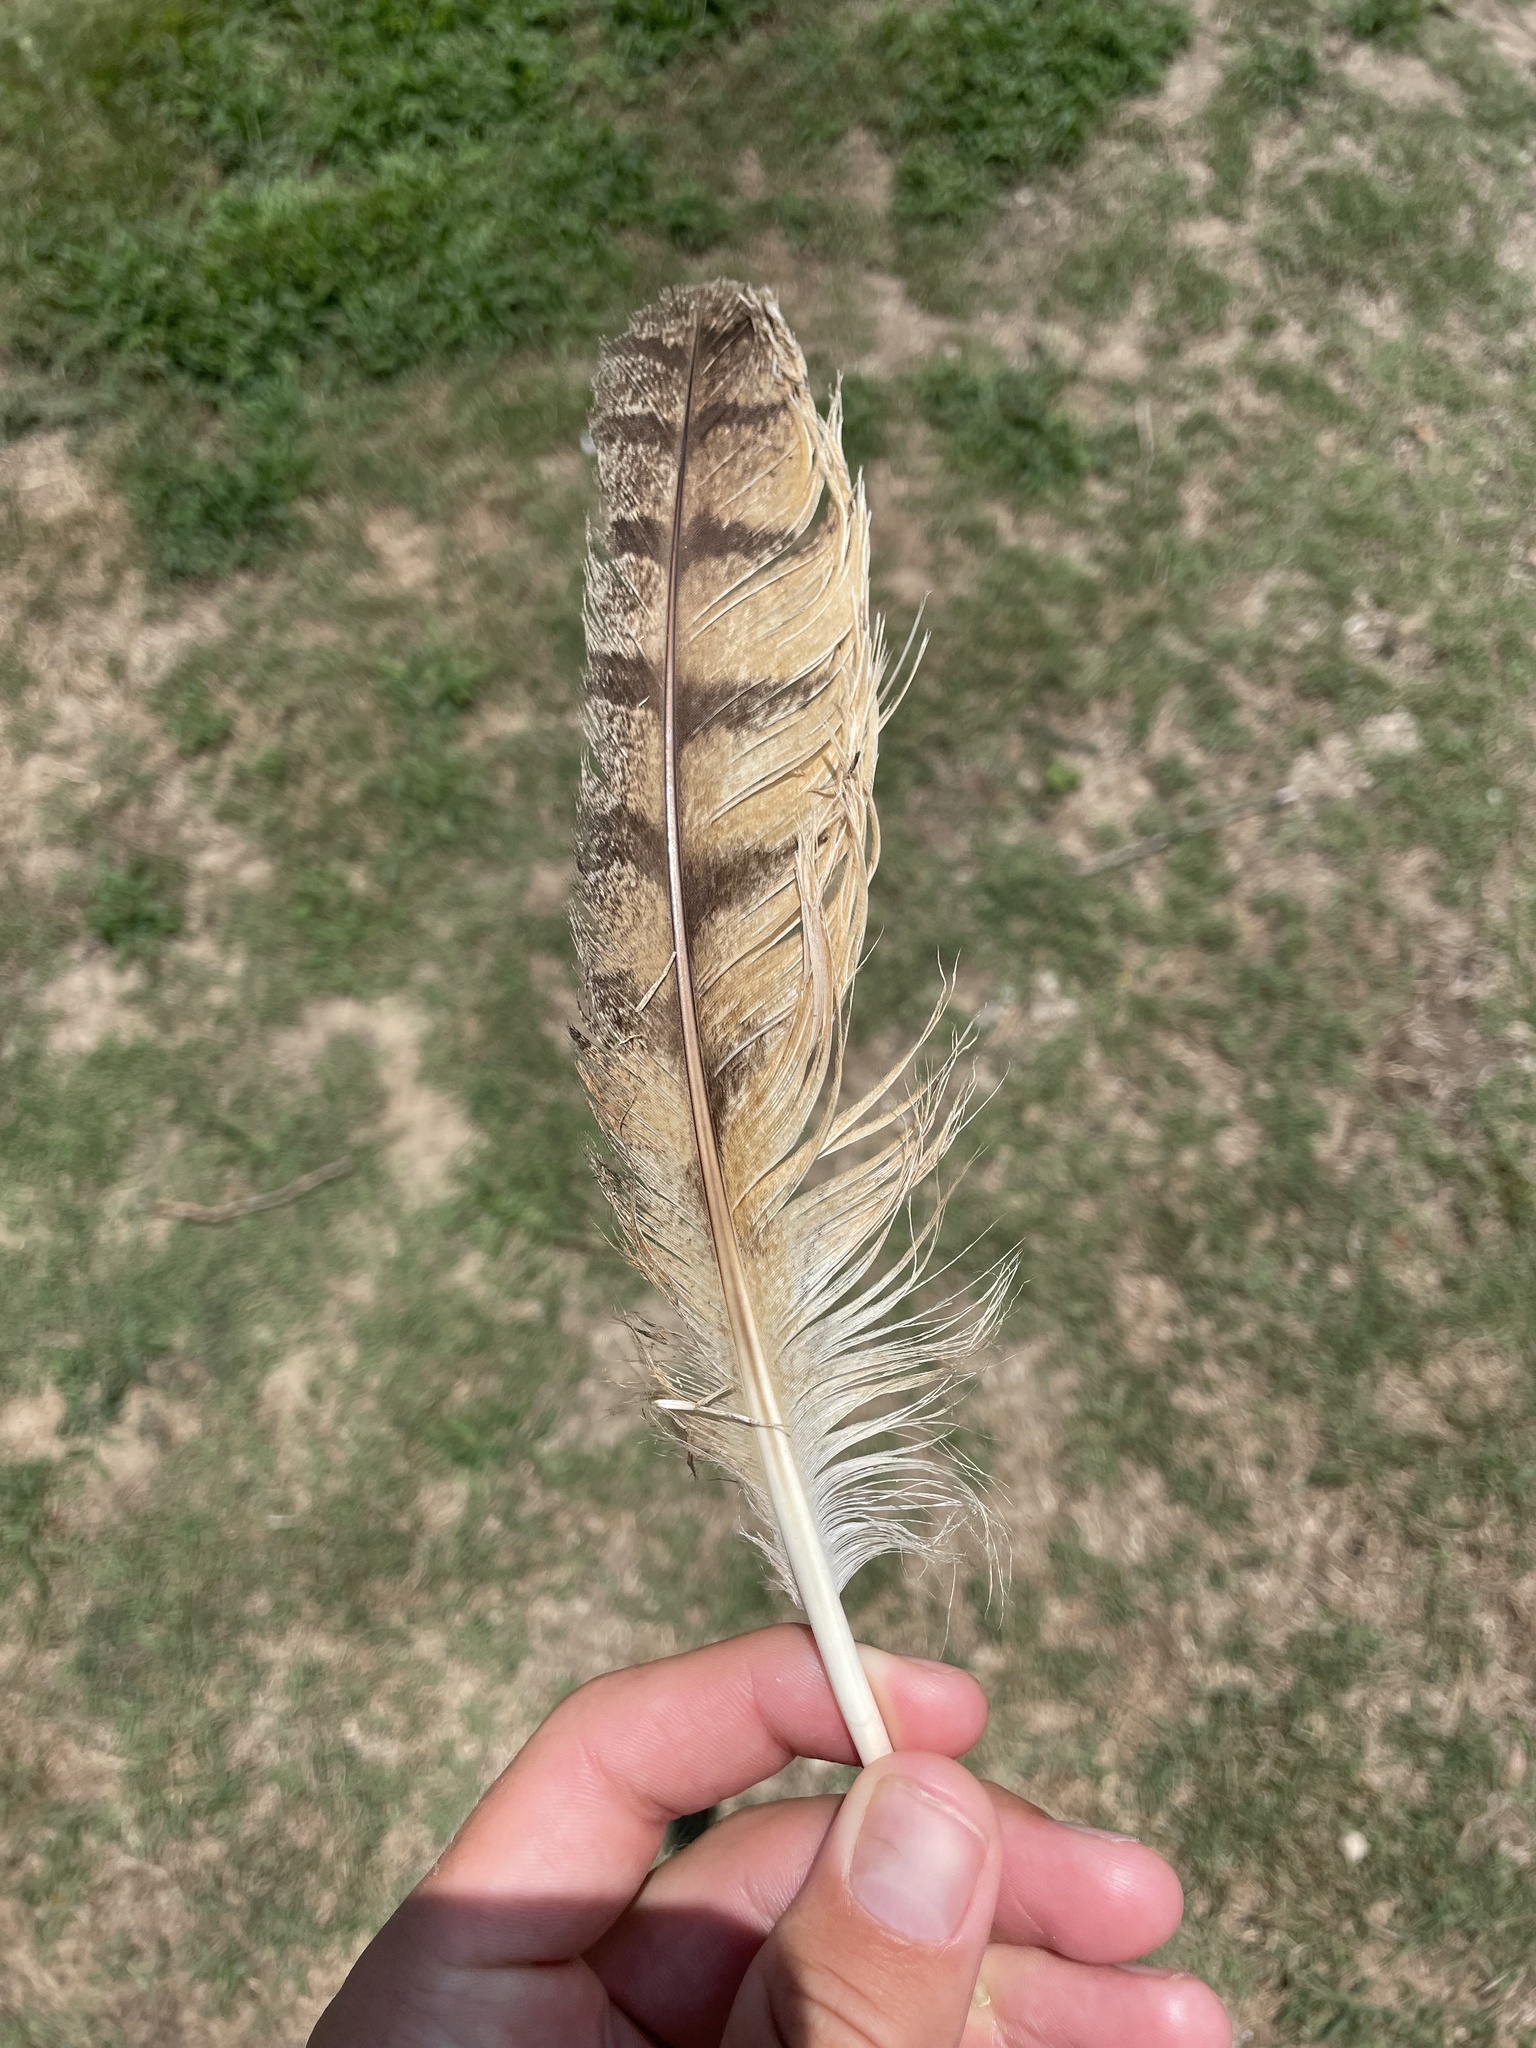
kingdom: Animalia
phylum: Chordata
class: Aves
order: Strigiformes
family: Strigidae
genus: Bubo
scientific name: Bubo virginianus
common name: Great horned owl
